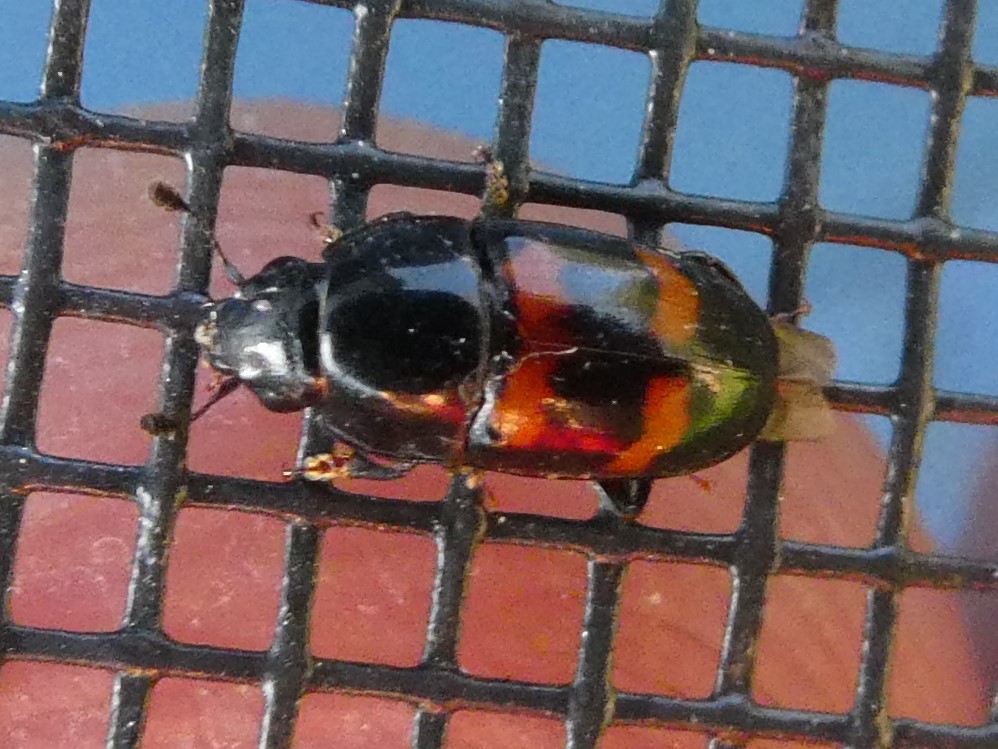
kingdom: Animalia
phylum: Arthropoda
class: Insecta
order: Coleoptera
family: Nitidulidae
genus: Glischrochilus
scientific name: Glischrochilus sanguinolentus
